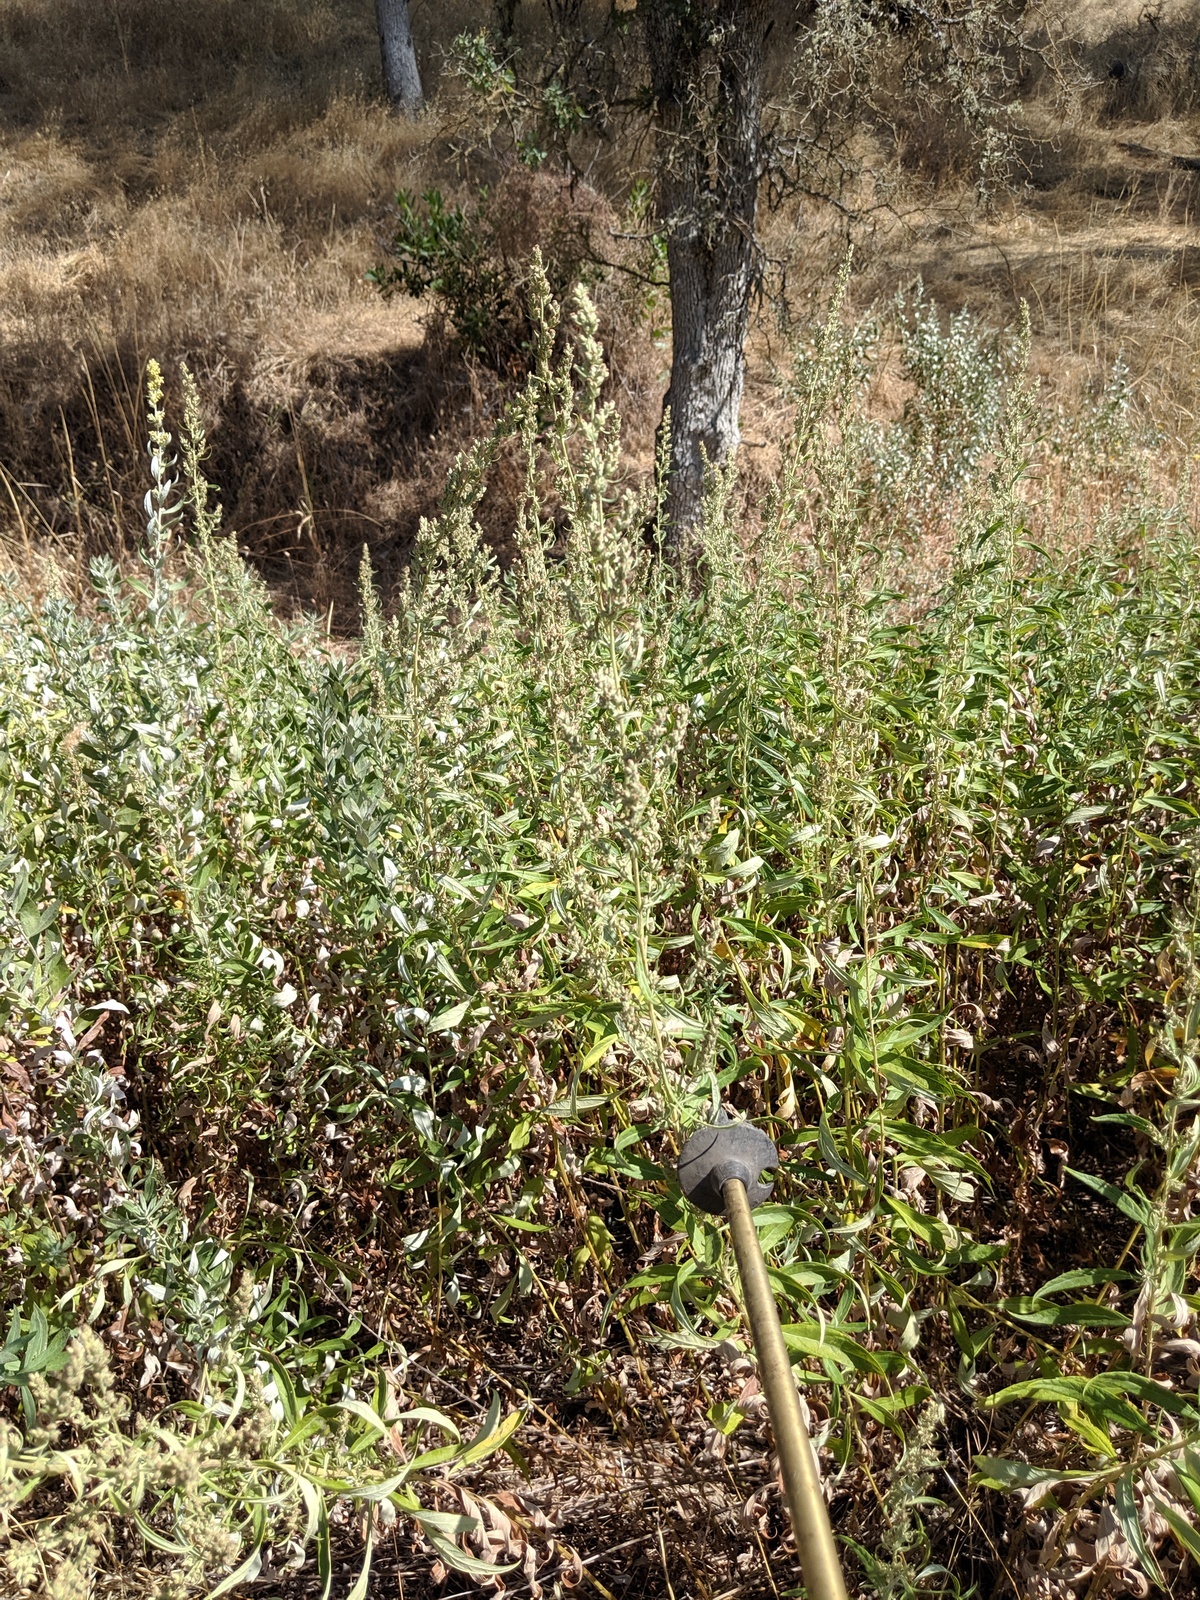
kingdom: Plantae
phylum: Tracheophyta
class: Magnoliopsida
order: Asterales
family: Asteraceae
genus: Artemisia
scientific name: Artemisia douglasiana
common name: Northwest mugwort
